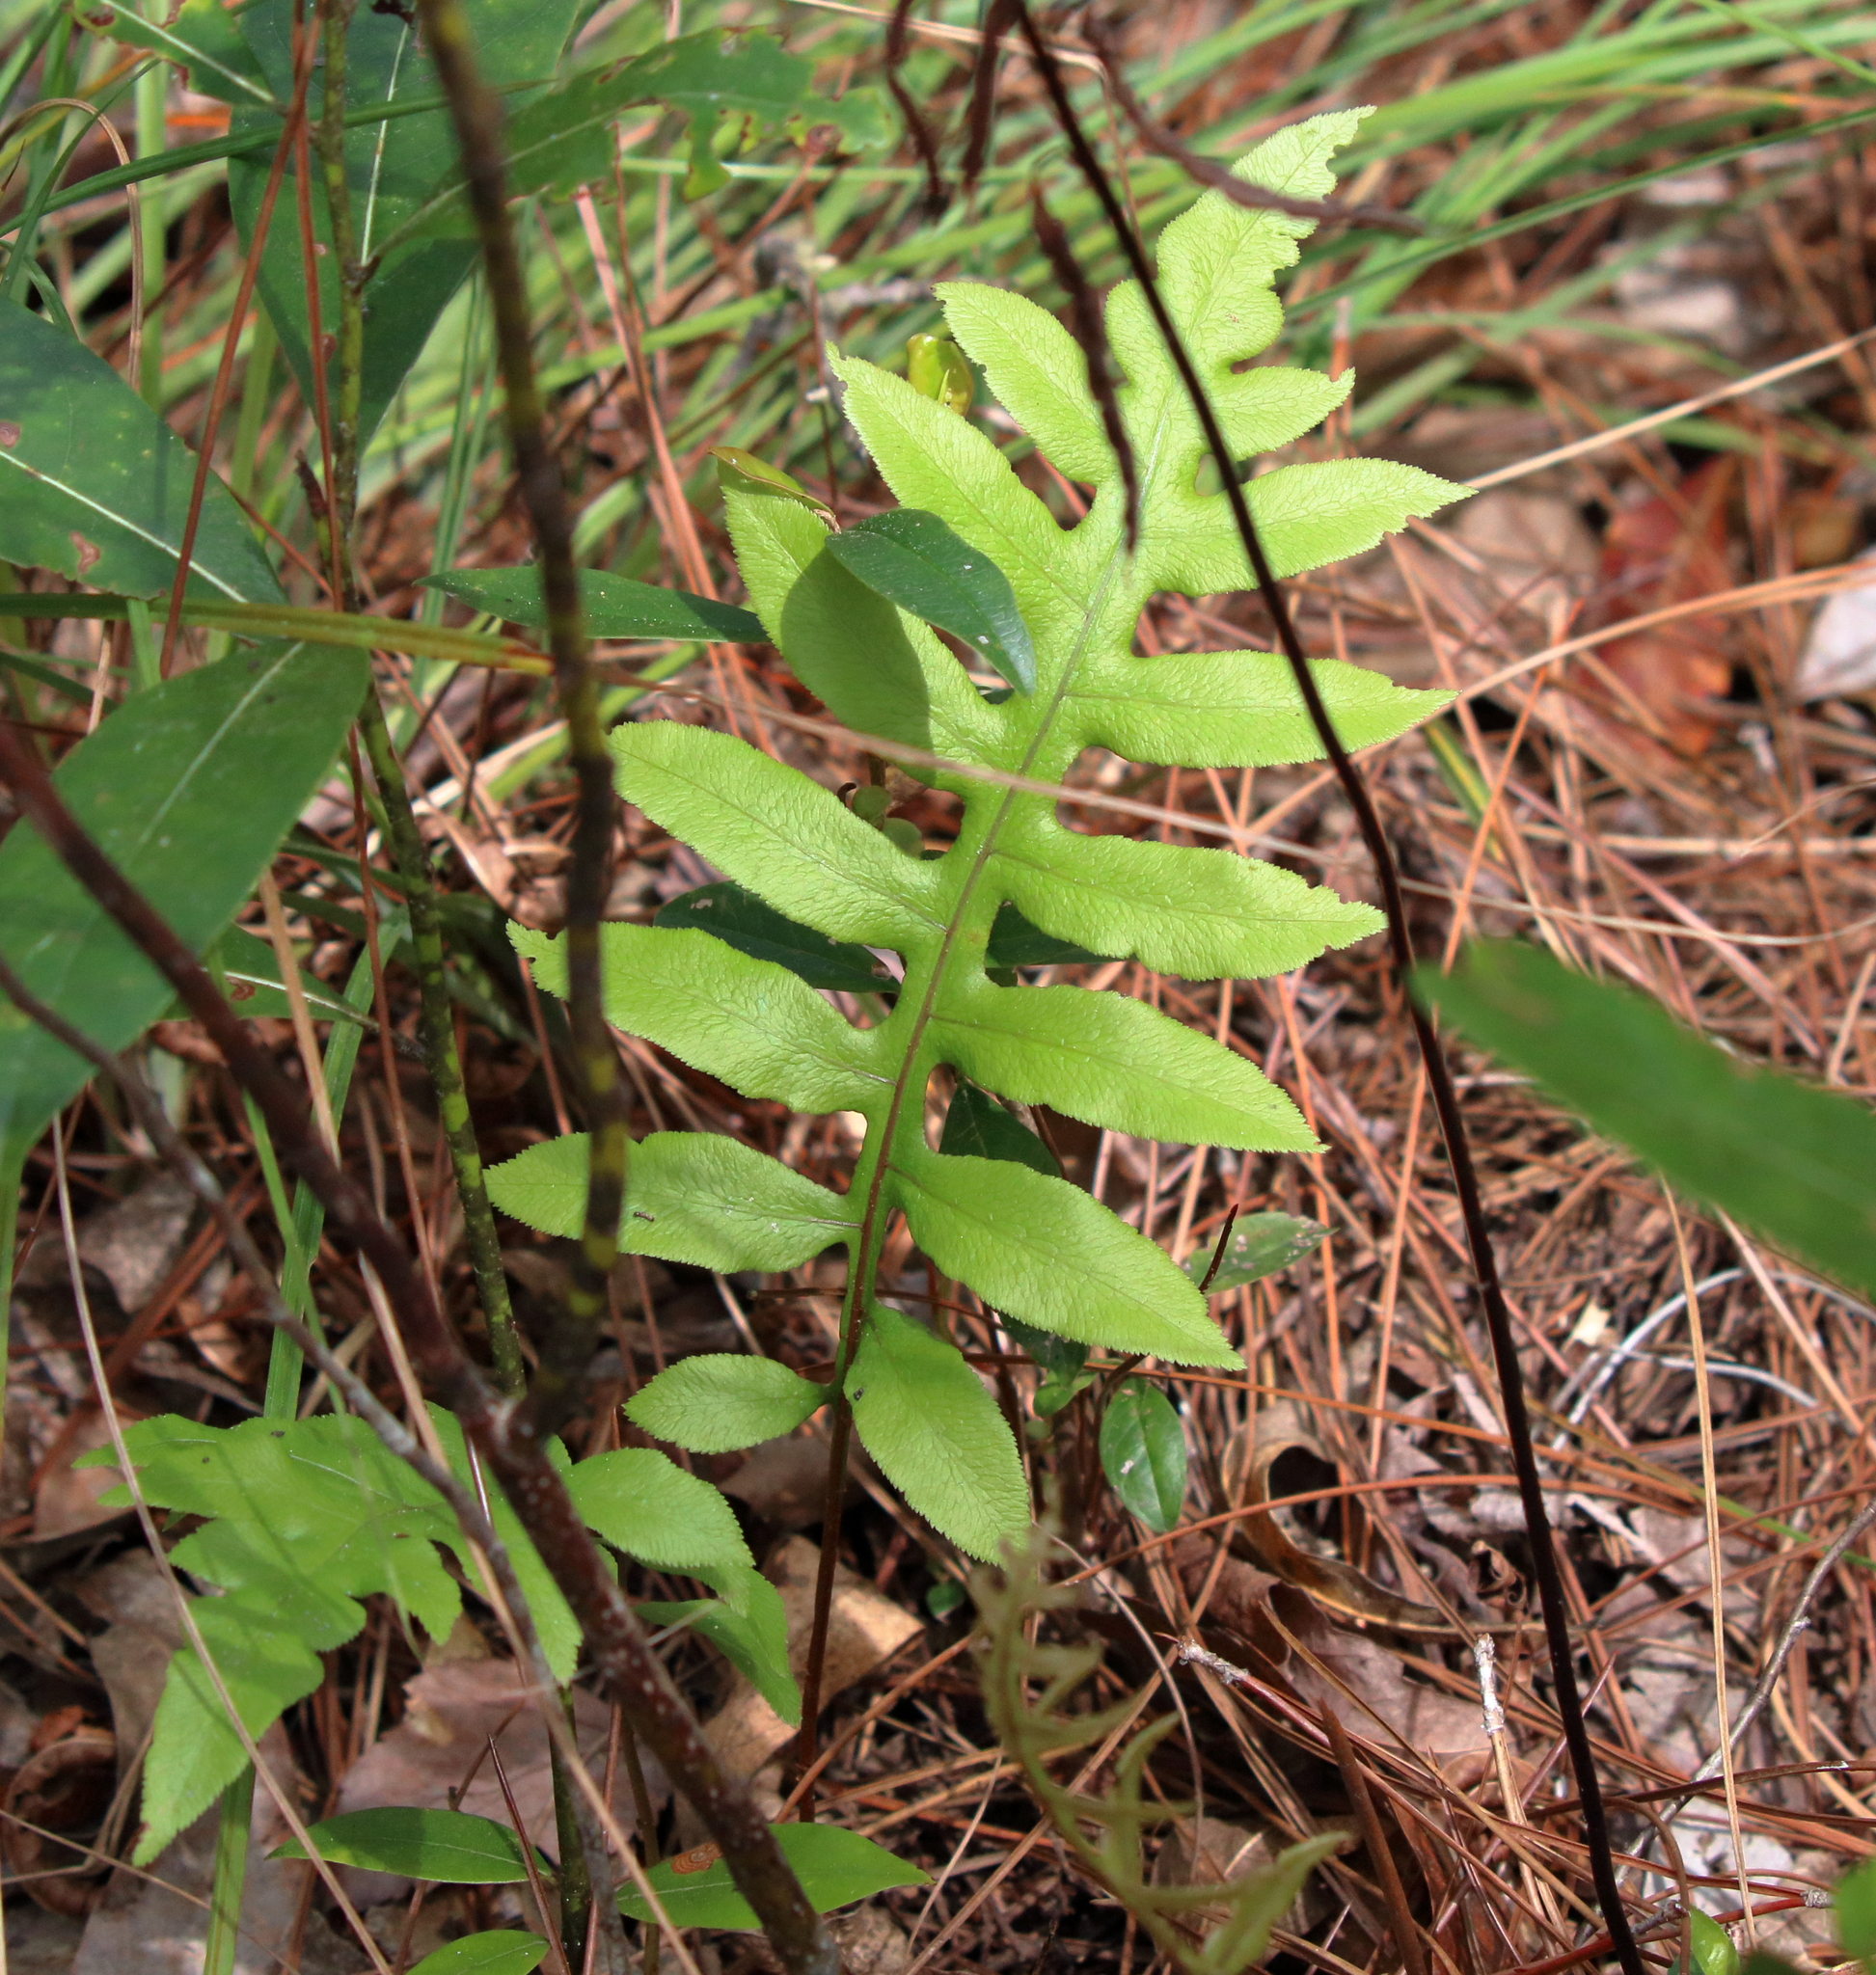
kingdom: Plantae
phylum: Tracheophyta
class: Polypodiopsida
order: Polypodiales
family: Blechnaceae
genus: Lorinseria
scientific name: Lorinseria areolata
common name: Dwarf chain fern
